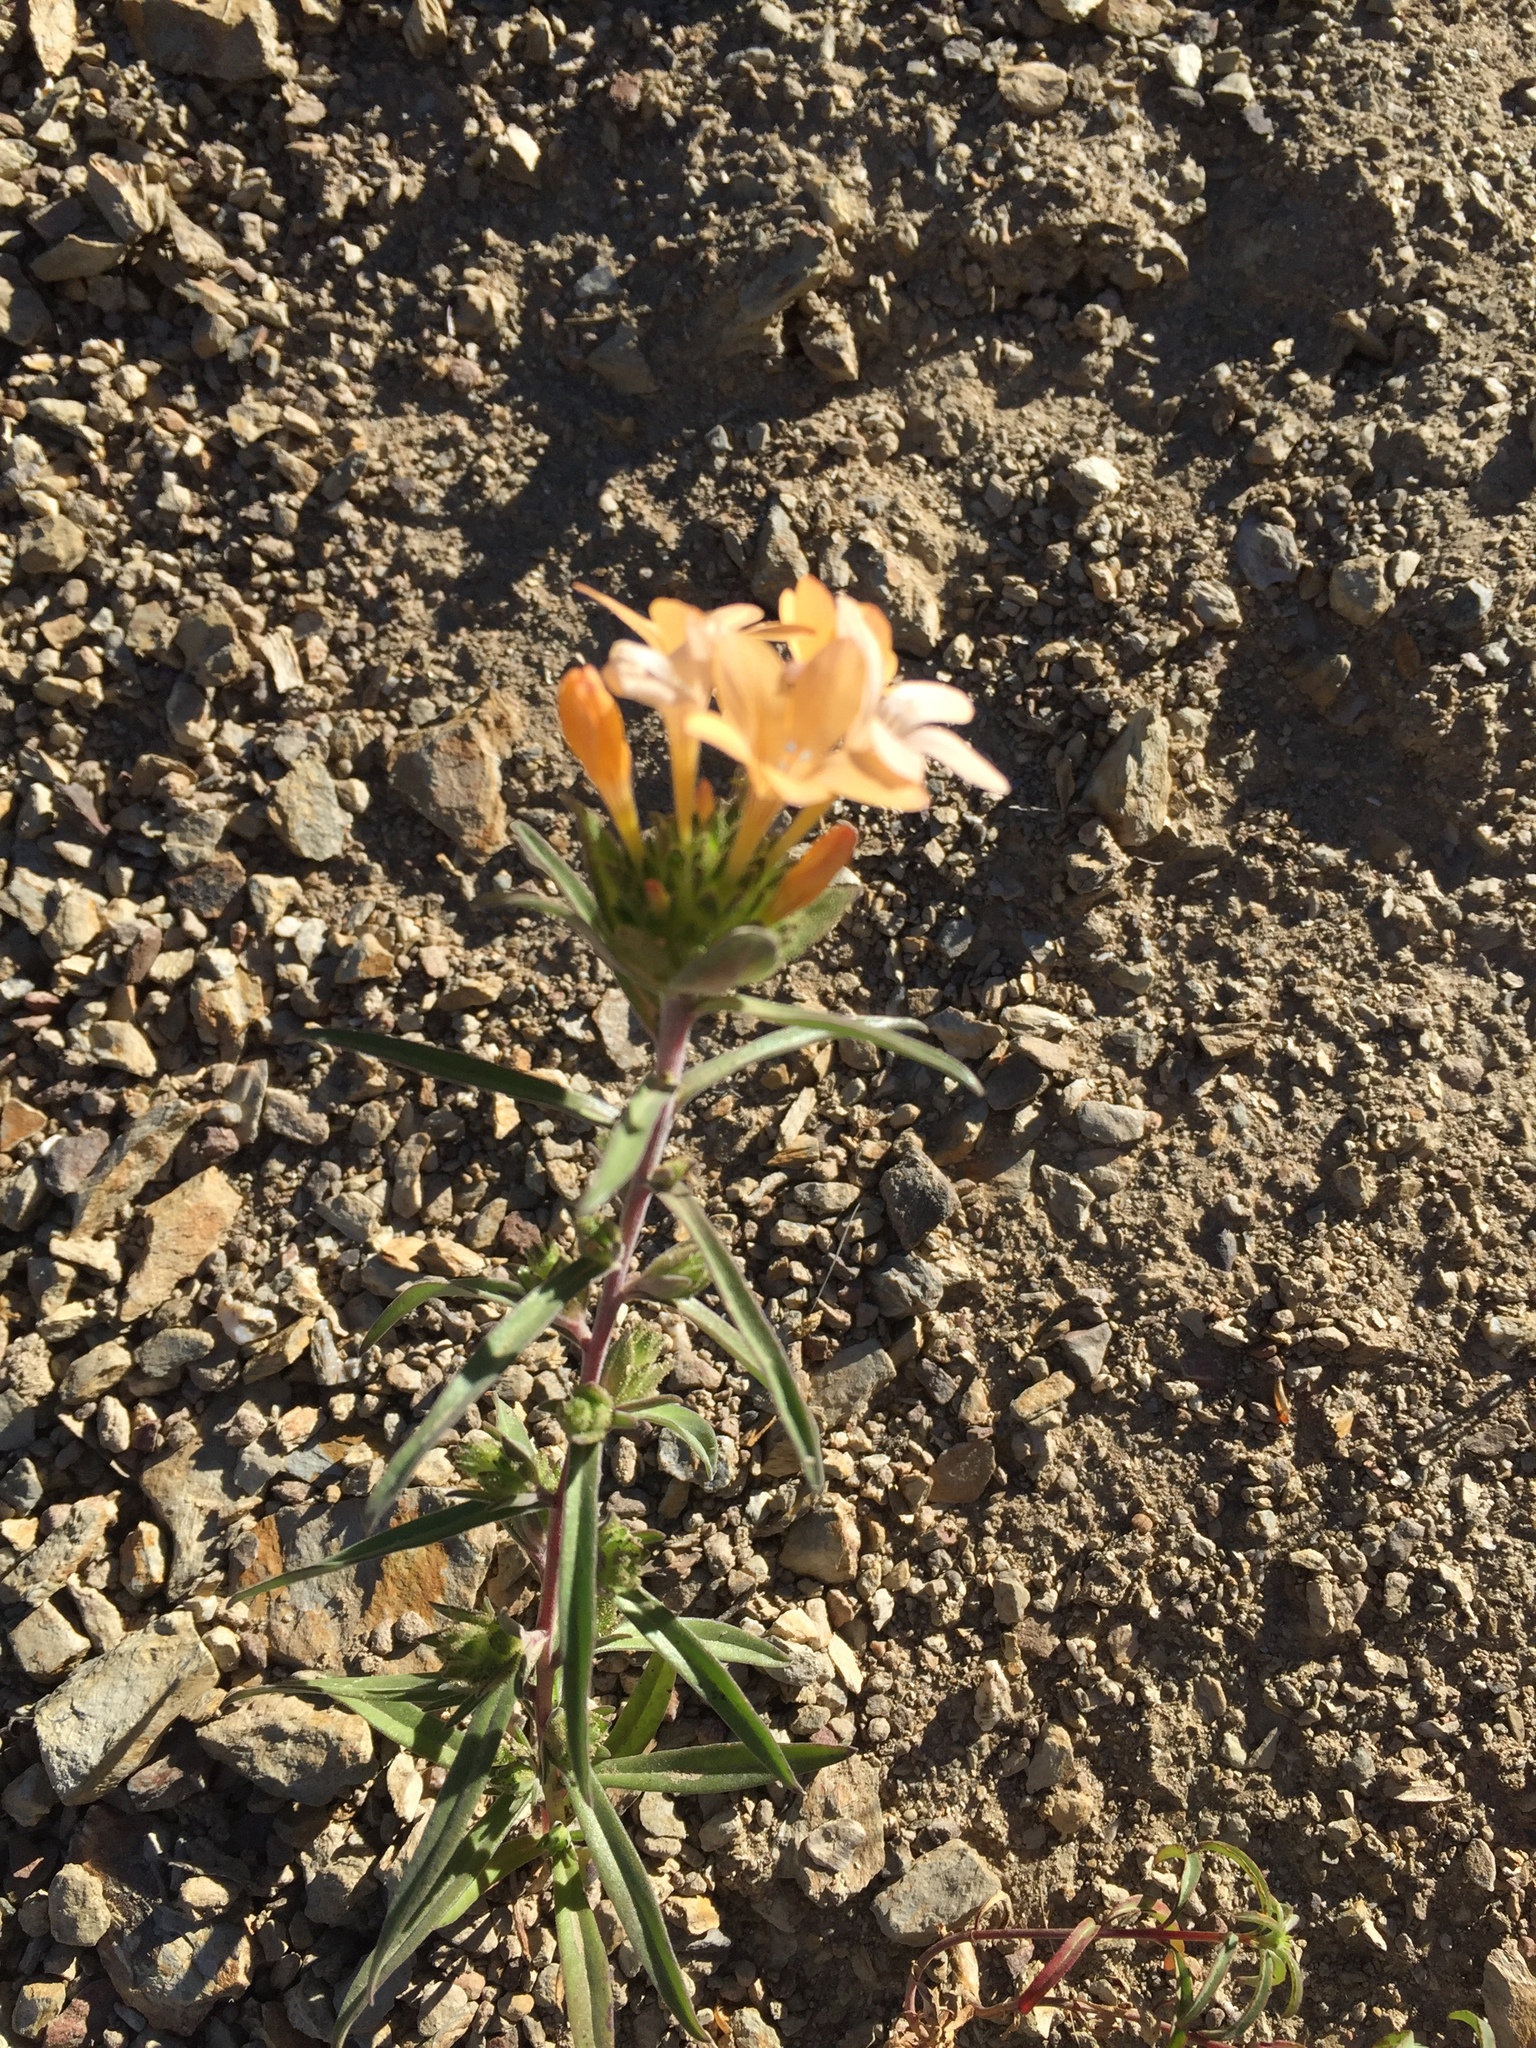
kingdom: Plantae
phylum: Tracheophyta
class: Magnoliopsida
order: Ericales
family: Polemoniaceae
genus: Collomia
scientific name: Collomia grandiflora
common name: California strawflower
